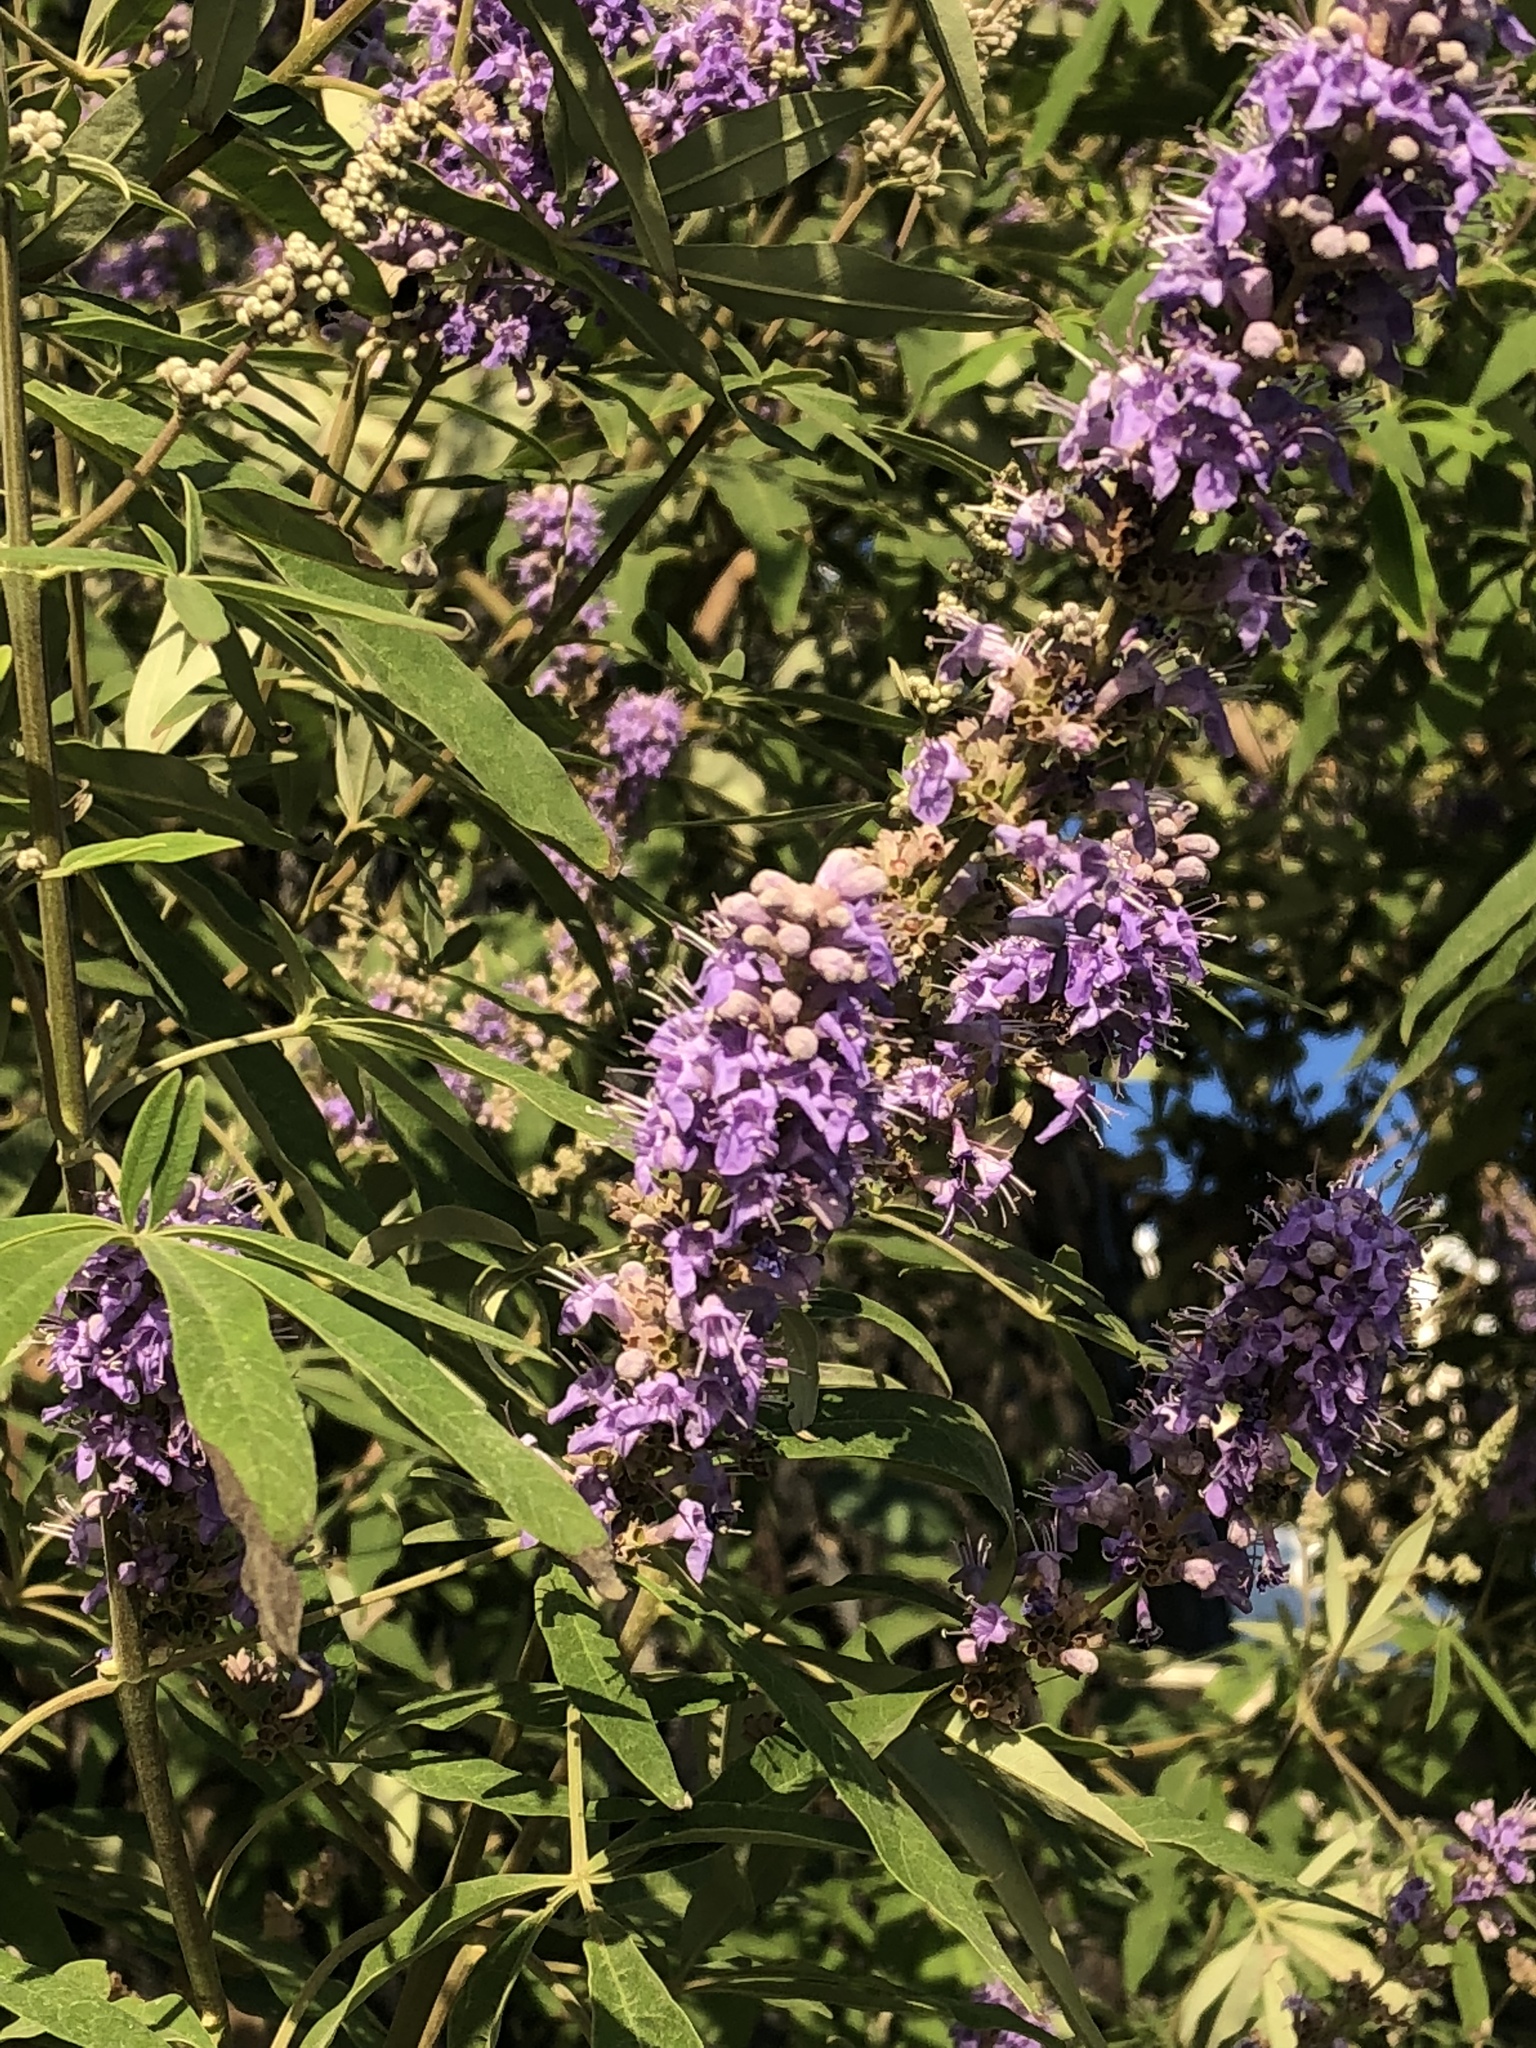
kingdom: Plantae
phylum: Tracheophyta
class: Magnoliopsida
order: Lamiales
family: Lamiaceae
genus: Vitex
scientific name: Vitex agnus-castus
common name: Chasteberry
